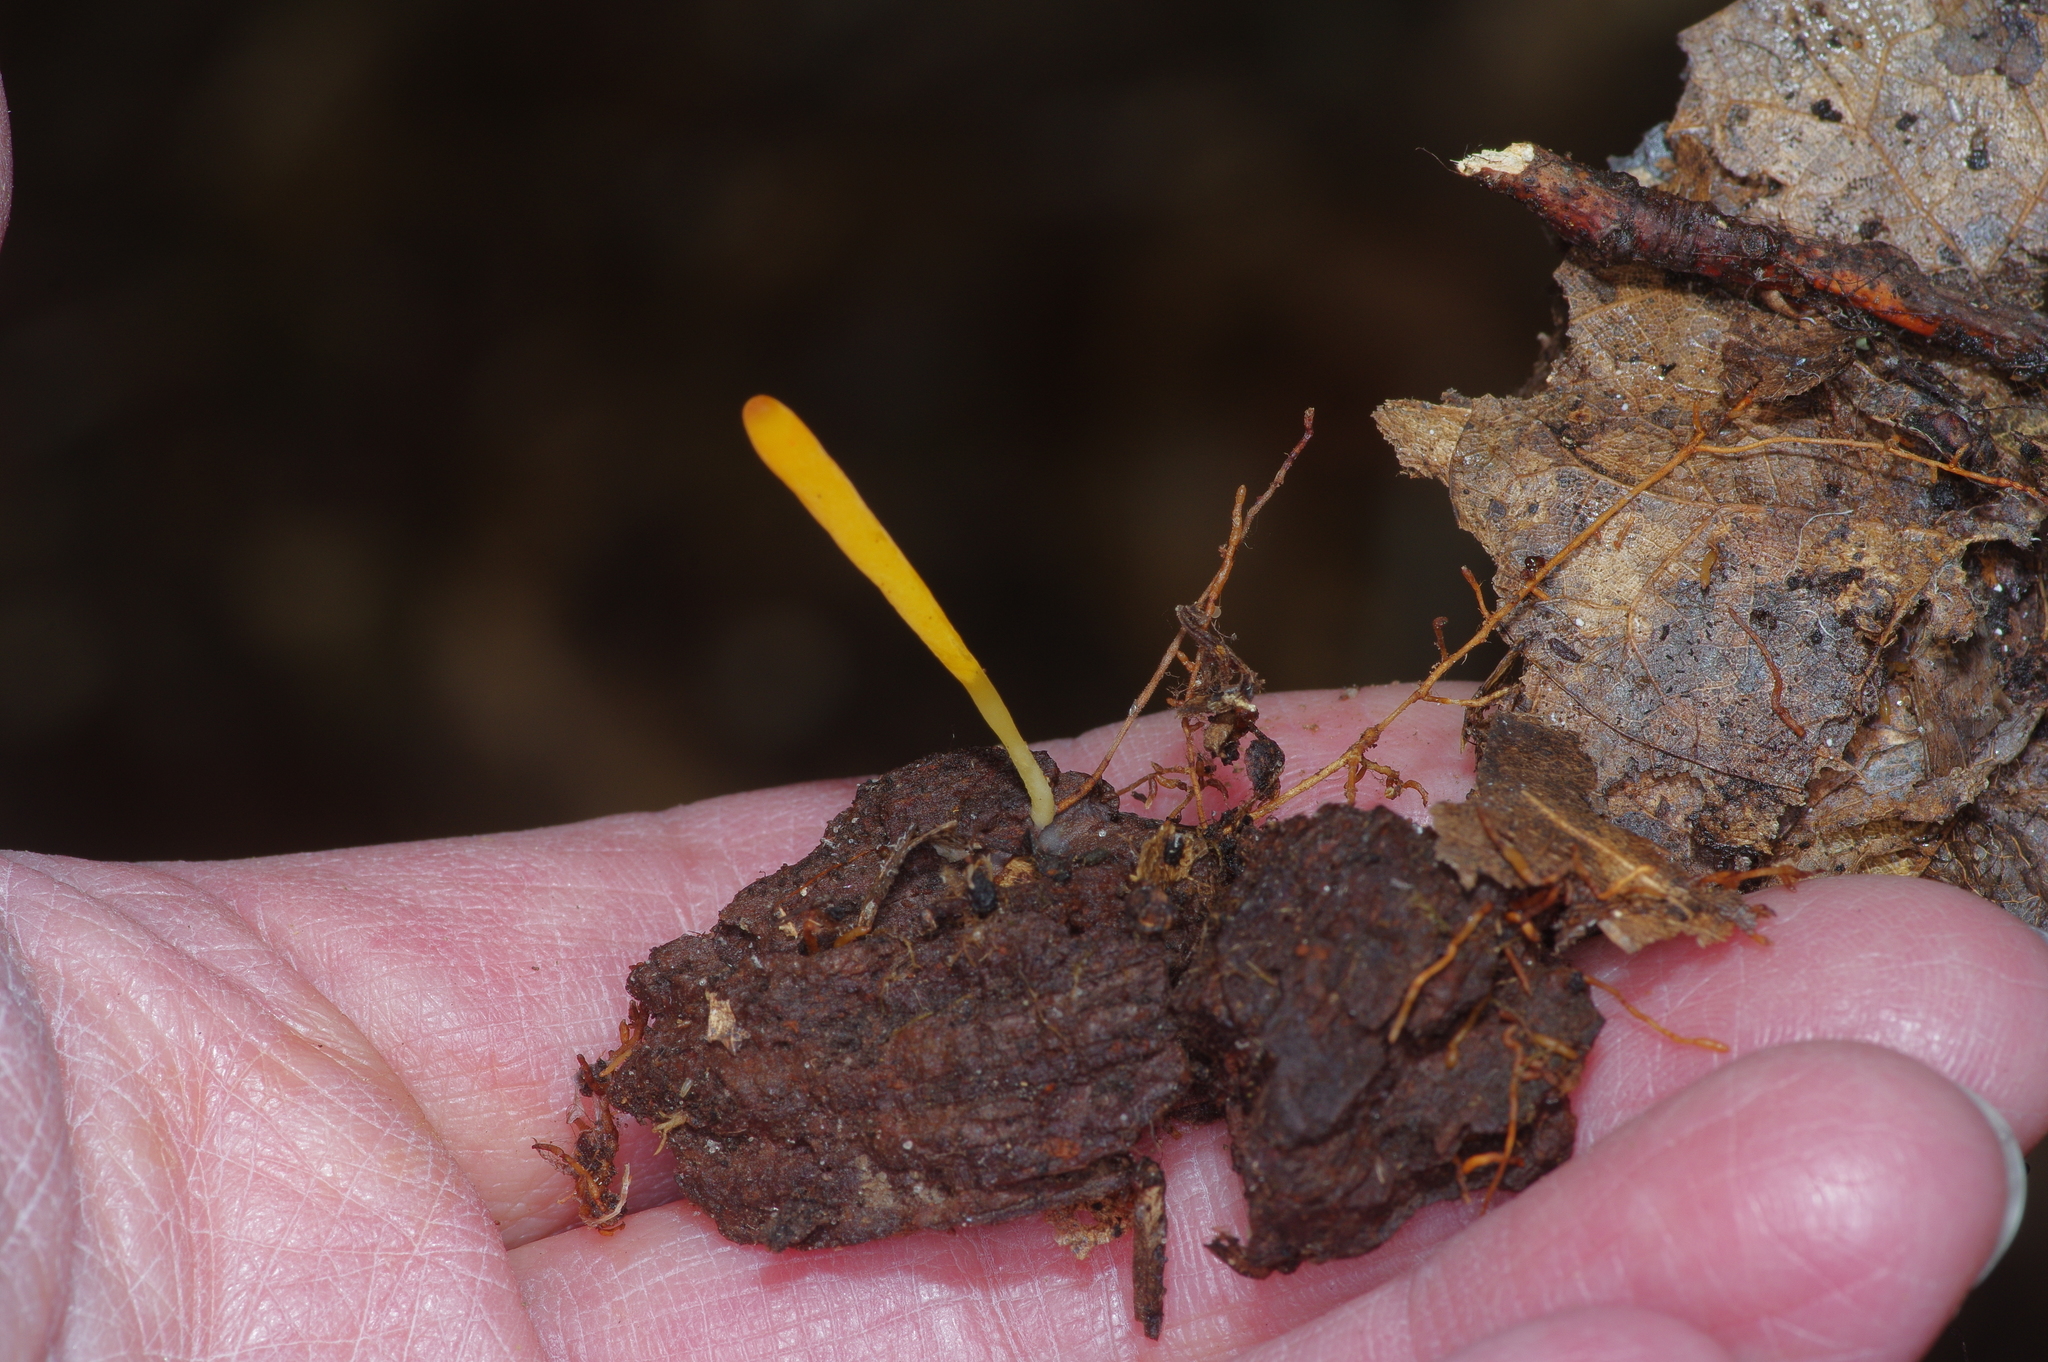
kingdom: Fungi
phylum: Basidiomycota
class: Agaricomycetes
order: Agaricales
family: Clavariaceae
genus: Clavulinopsis
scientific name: Clavulinopsis fusiformis
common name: Golden spindles
